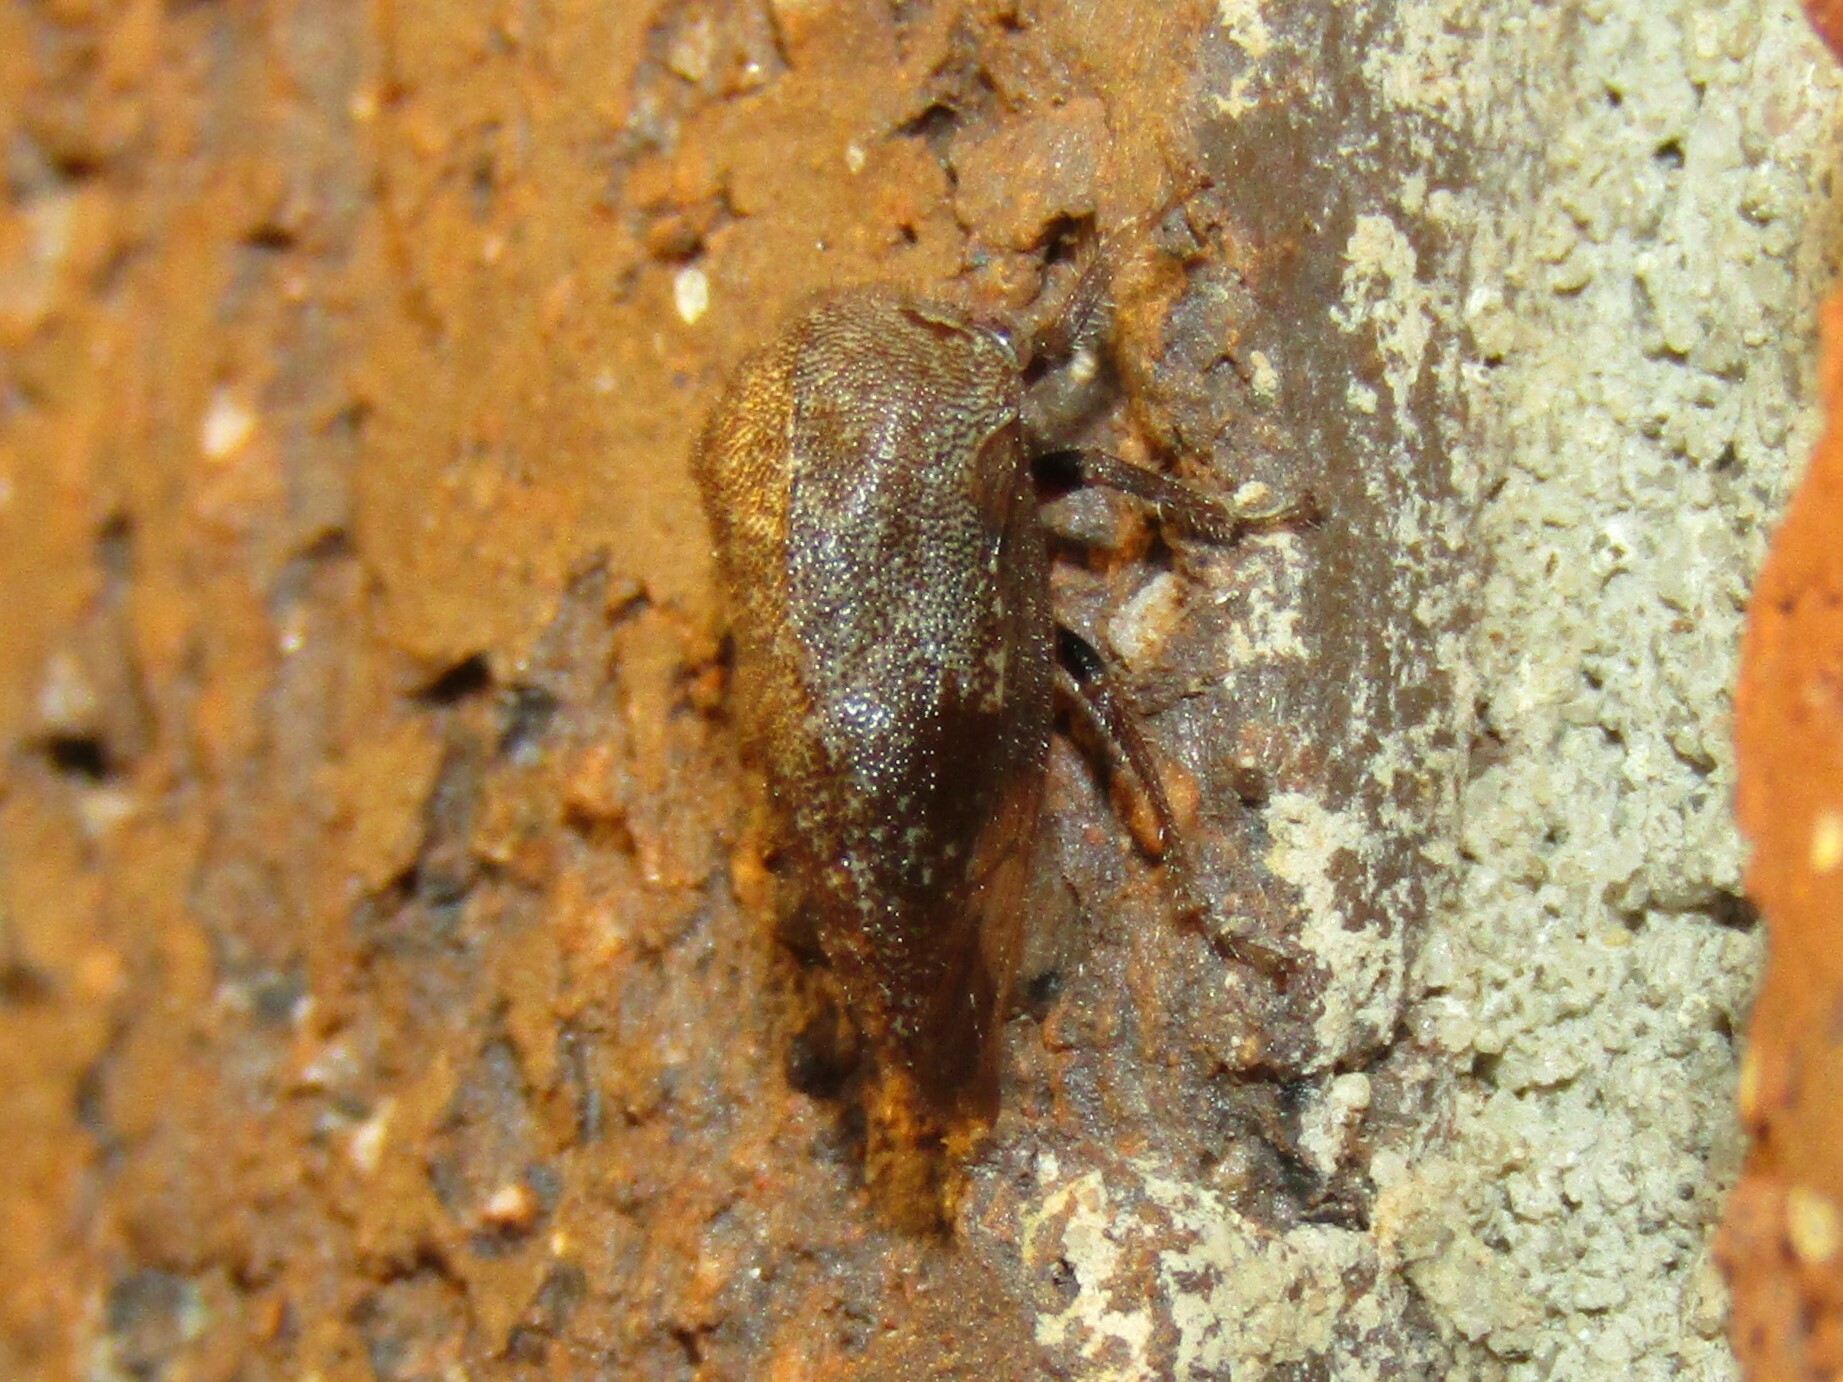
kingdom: Animalia
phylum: Arthropoda
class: Insecta
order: Hemiptera
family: Membracidae
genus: Ophiderma
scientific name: Ophiderma salamandra
